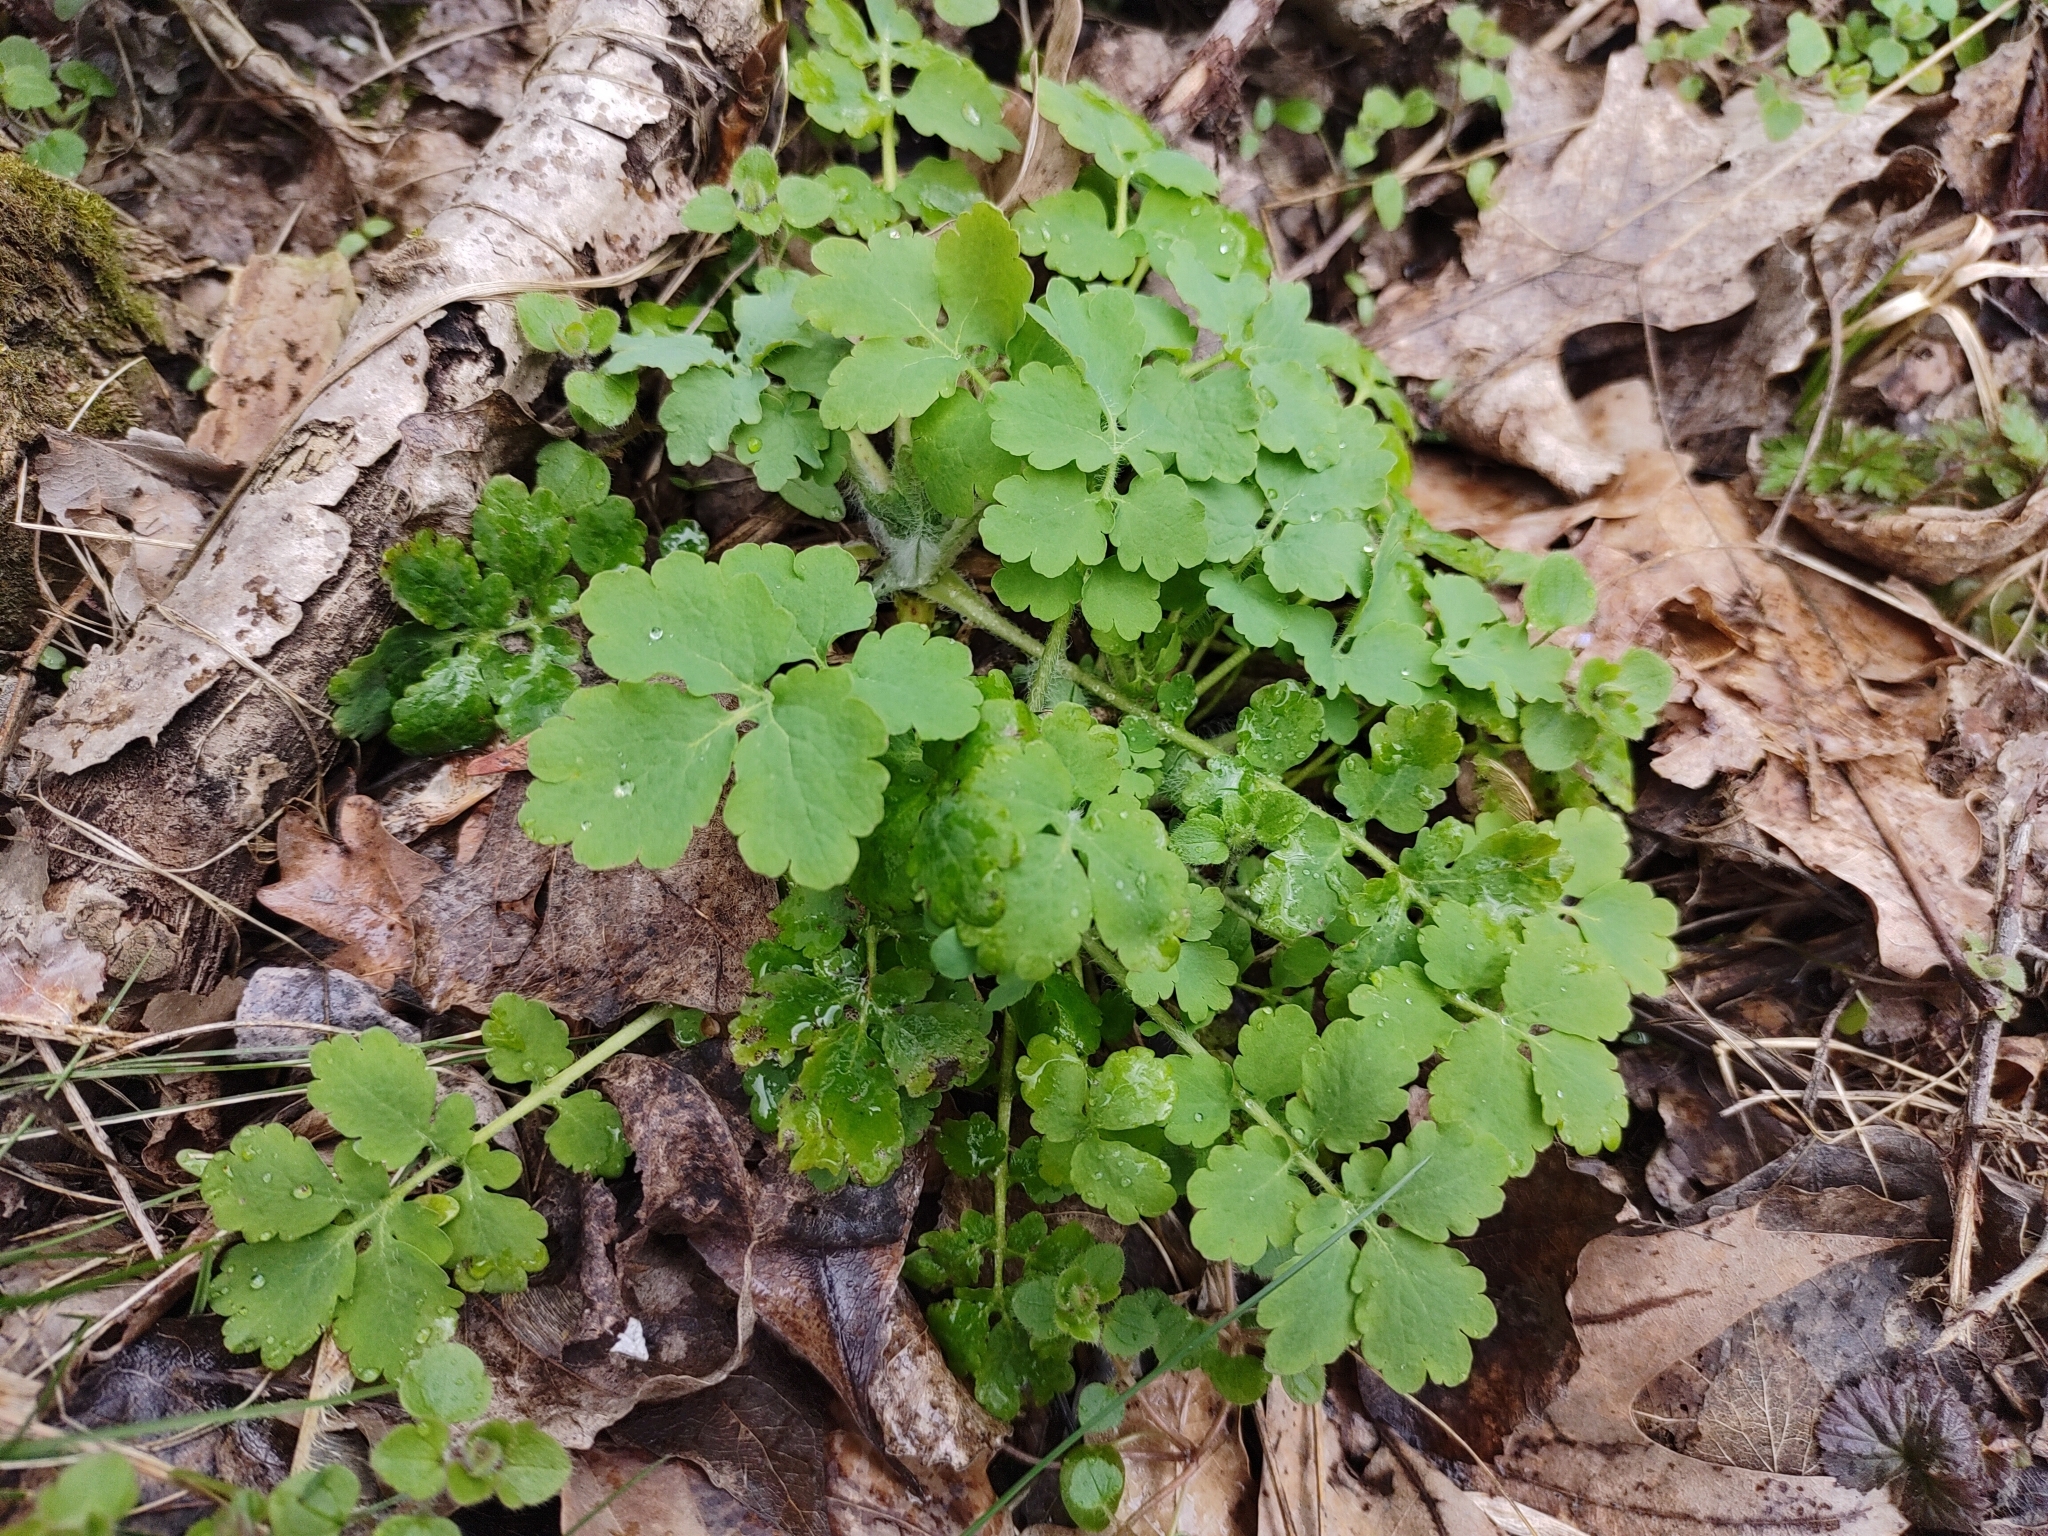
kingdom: Plantae
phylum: Tracheophyta
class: Magnoliopsida
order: Ranunculales
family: Papaveraceae
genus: Chelidonium
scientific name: Chelidonium majus
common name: Greater celandine
